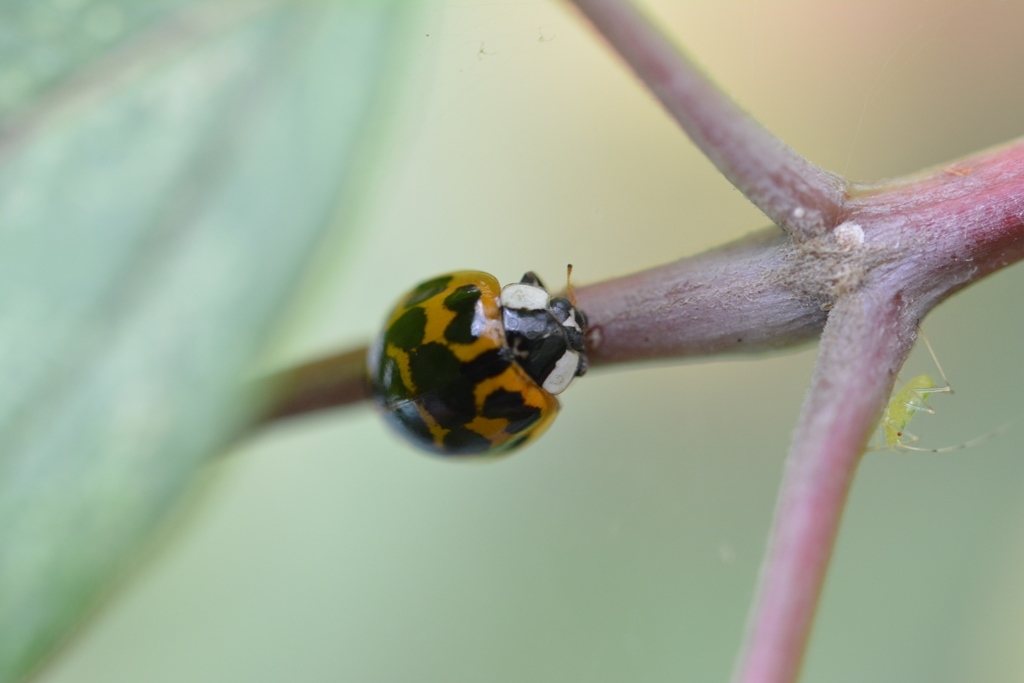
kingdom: Animalia
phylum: Arthropoda
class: Insecta
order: Coleoptera
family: Coccinellidae
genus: Harmonia
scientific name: Harmonia axyridis
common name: Harlequin ladybird
